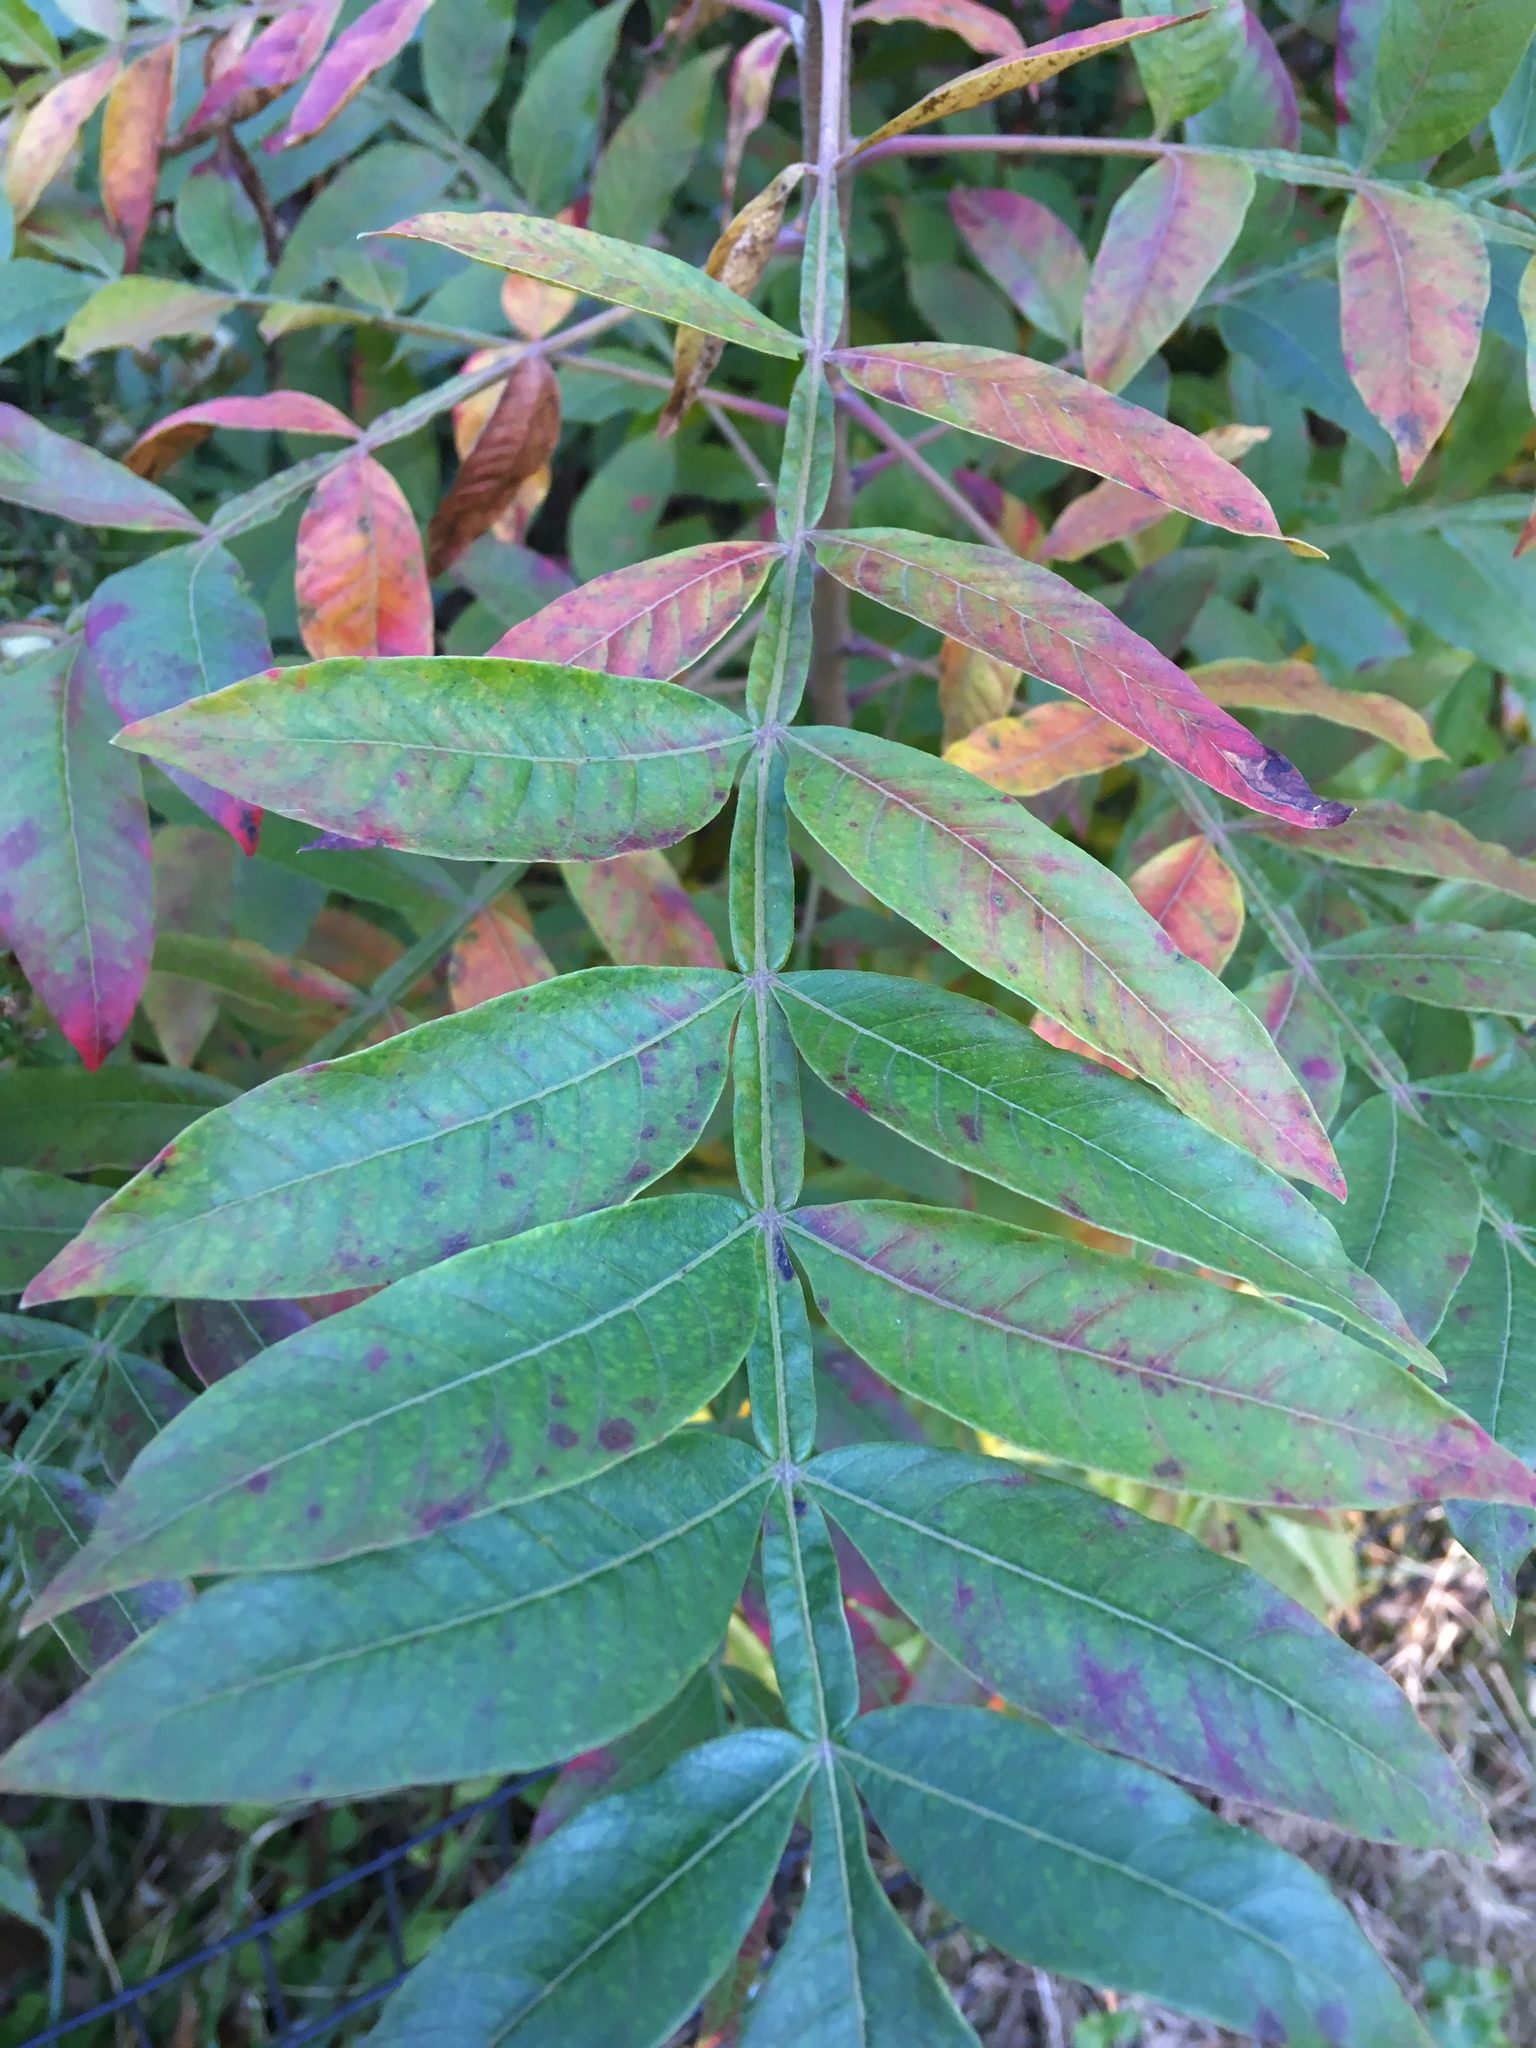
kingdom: Plantae
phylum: Tracheophyta
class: Magnoliopsida
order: Sapindales
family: Anacardiaceae
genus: Rhus
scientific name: Rhus copallina
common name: Shining sumac
